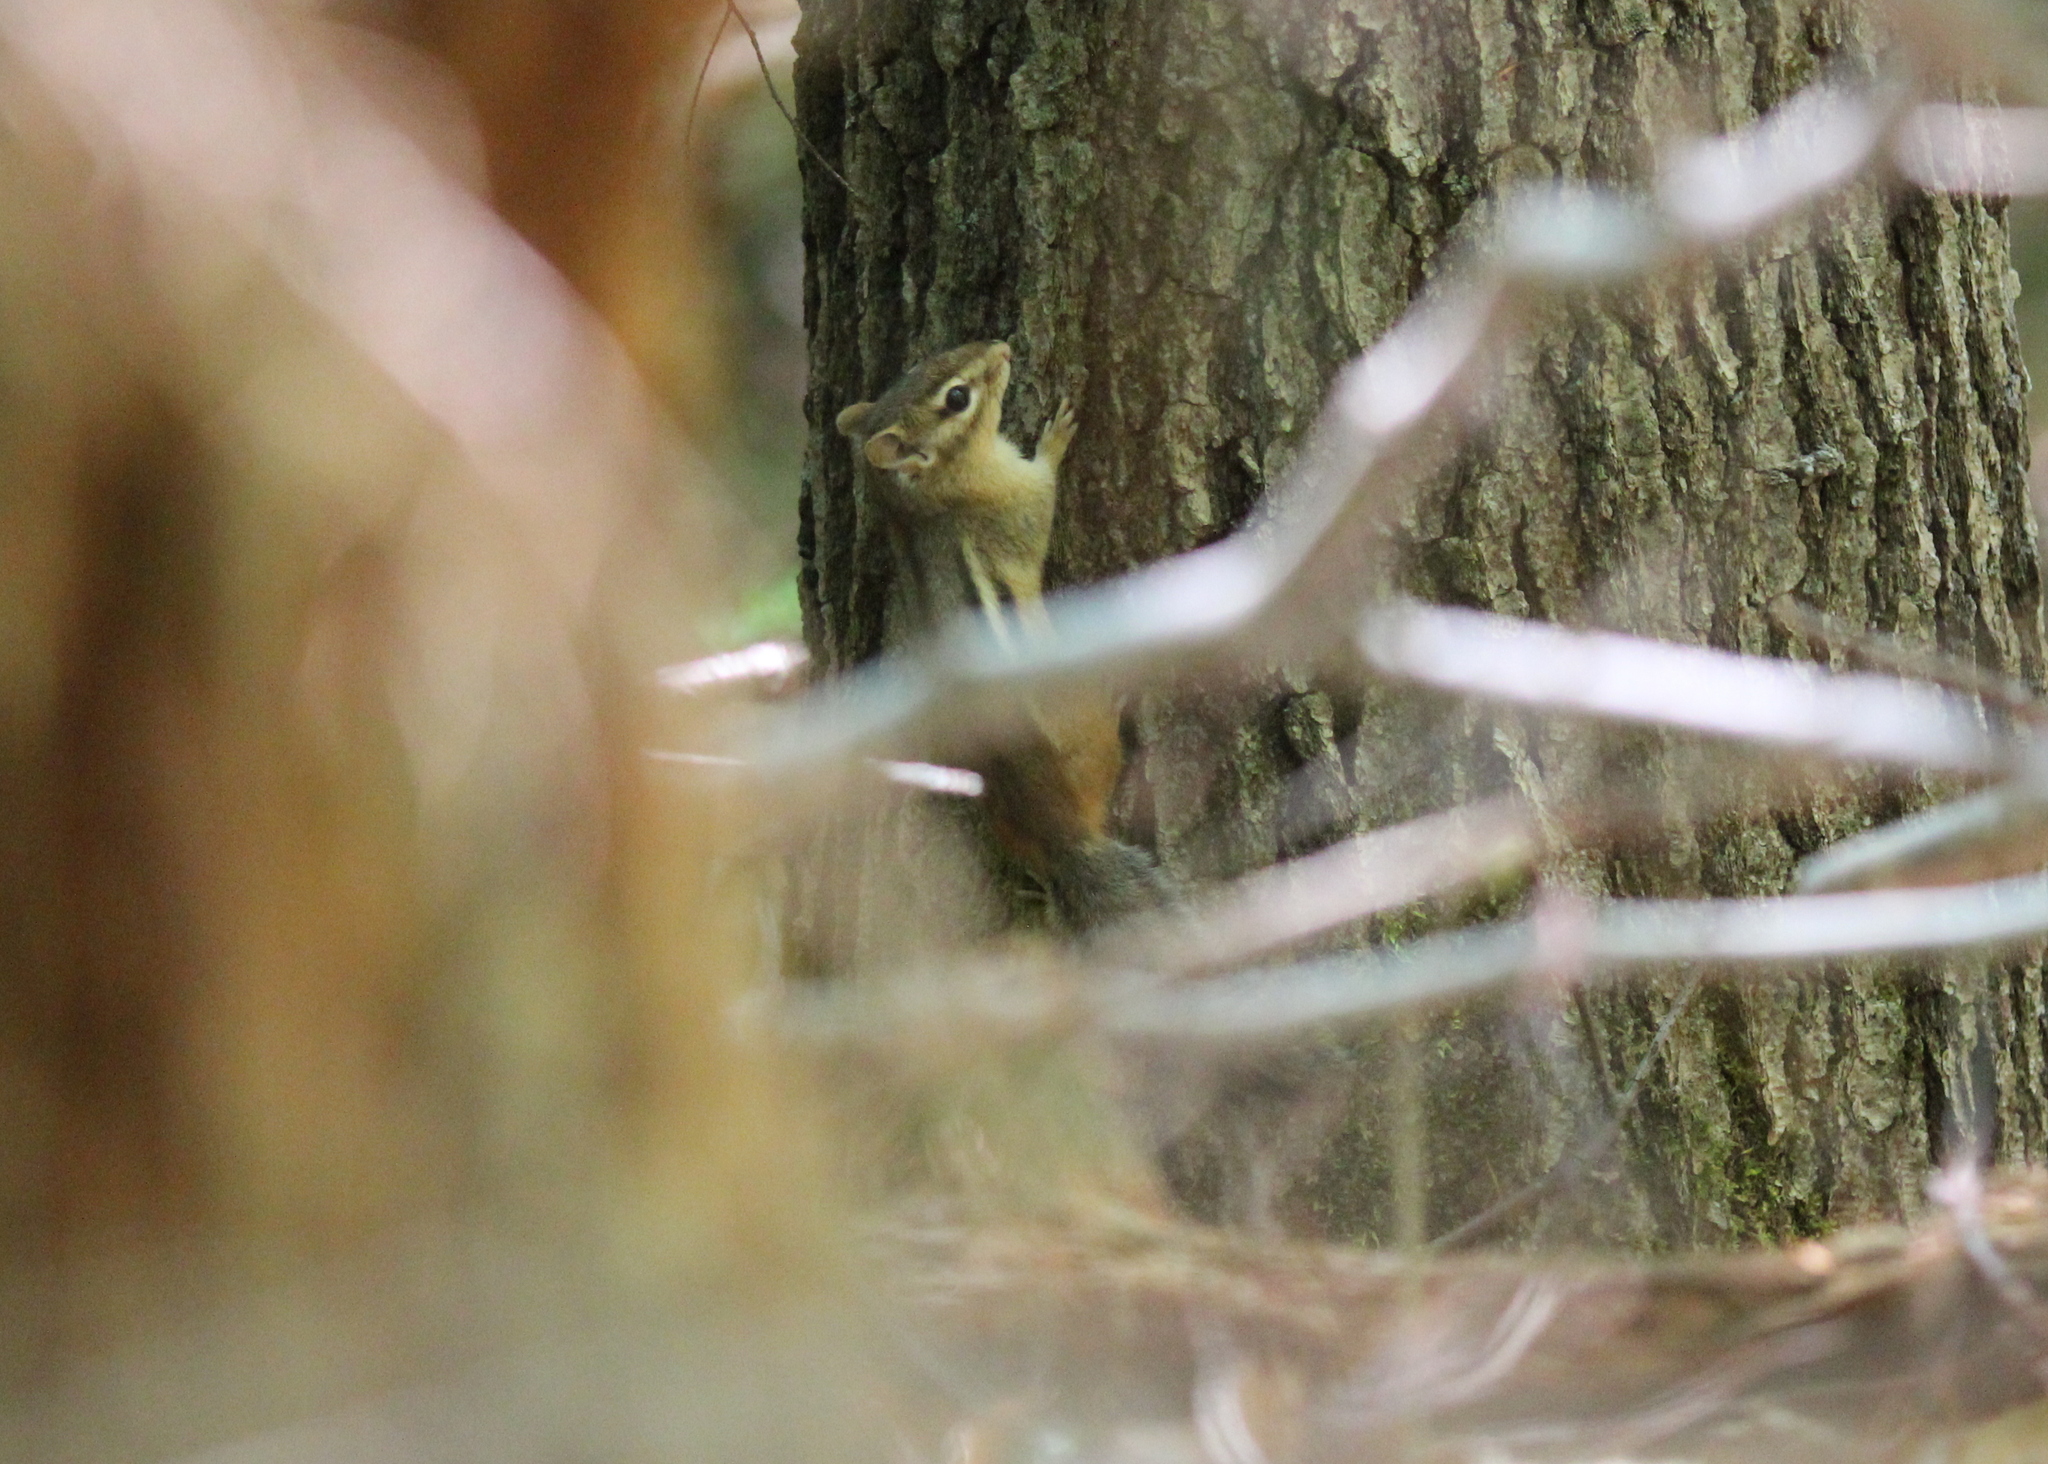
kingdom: Animalia
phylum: Chordata
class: Mammalia
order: Rodentia
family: Sciuridae
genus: Tamias
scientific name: Tamias striatus
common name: Eastern chipmunk
